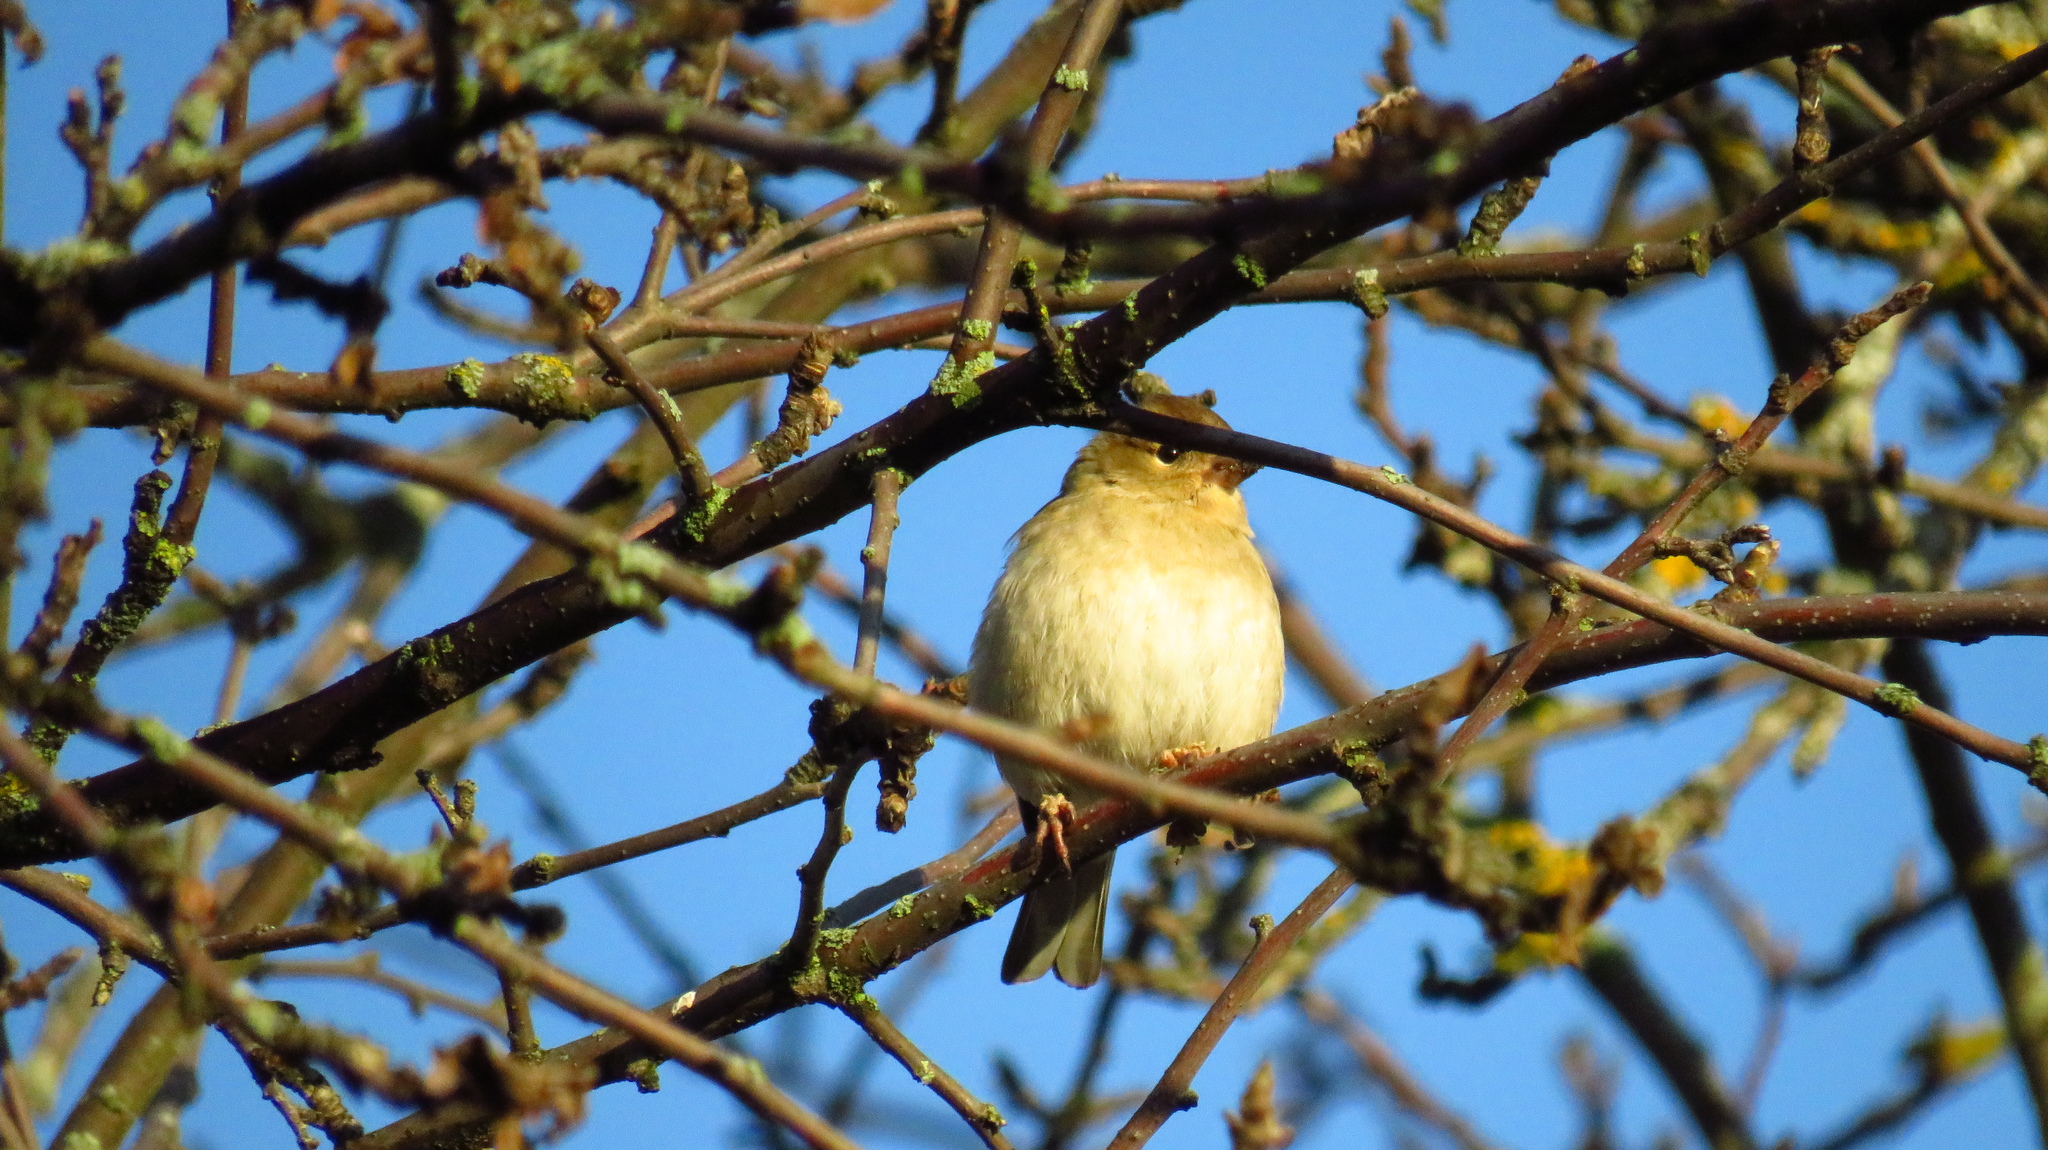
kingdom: Animalia
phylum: Chordata
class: Aves
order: Passeriformes
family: Fringillidae
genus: Fringilla
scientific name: Fringilla coelebs
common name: Common chaffinch
